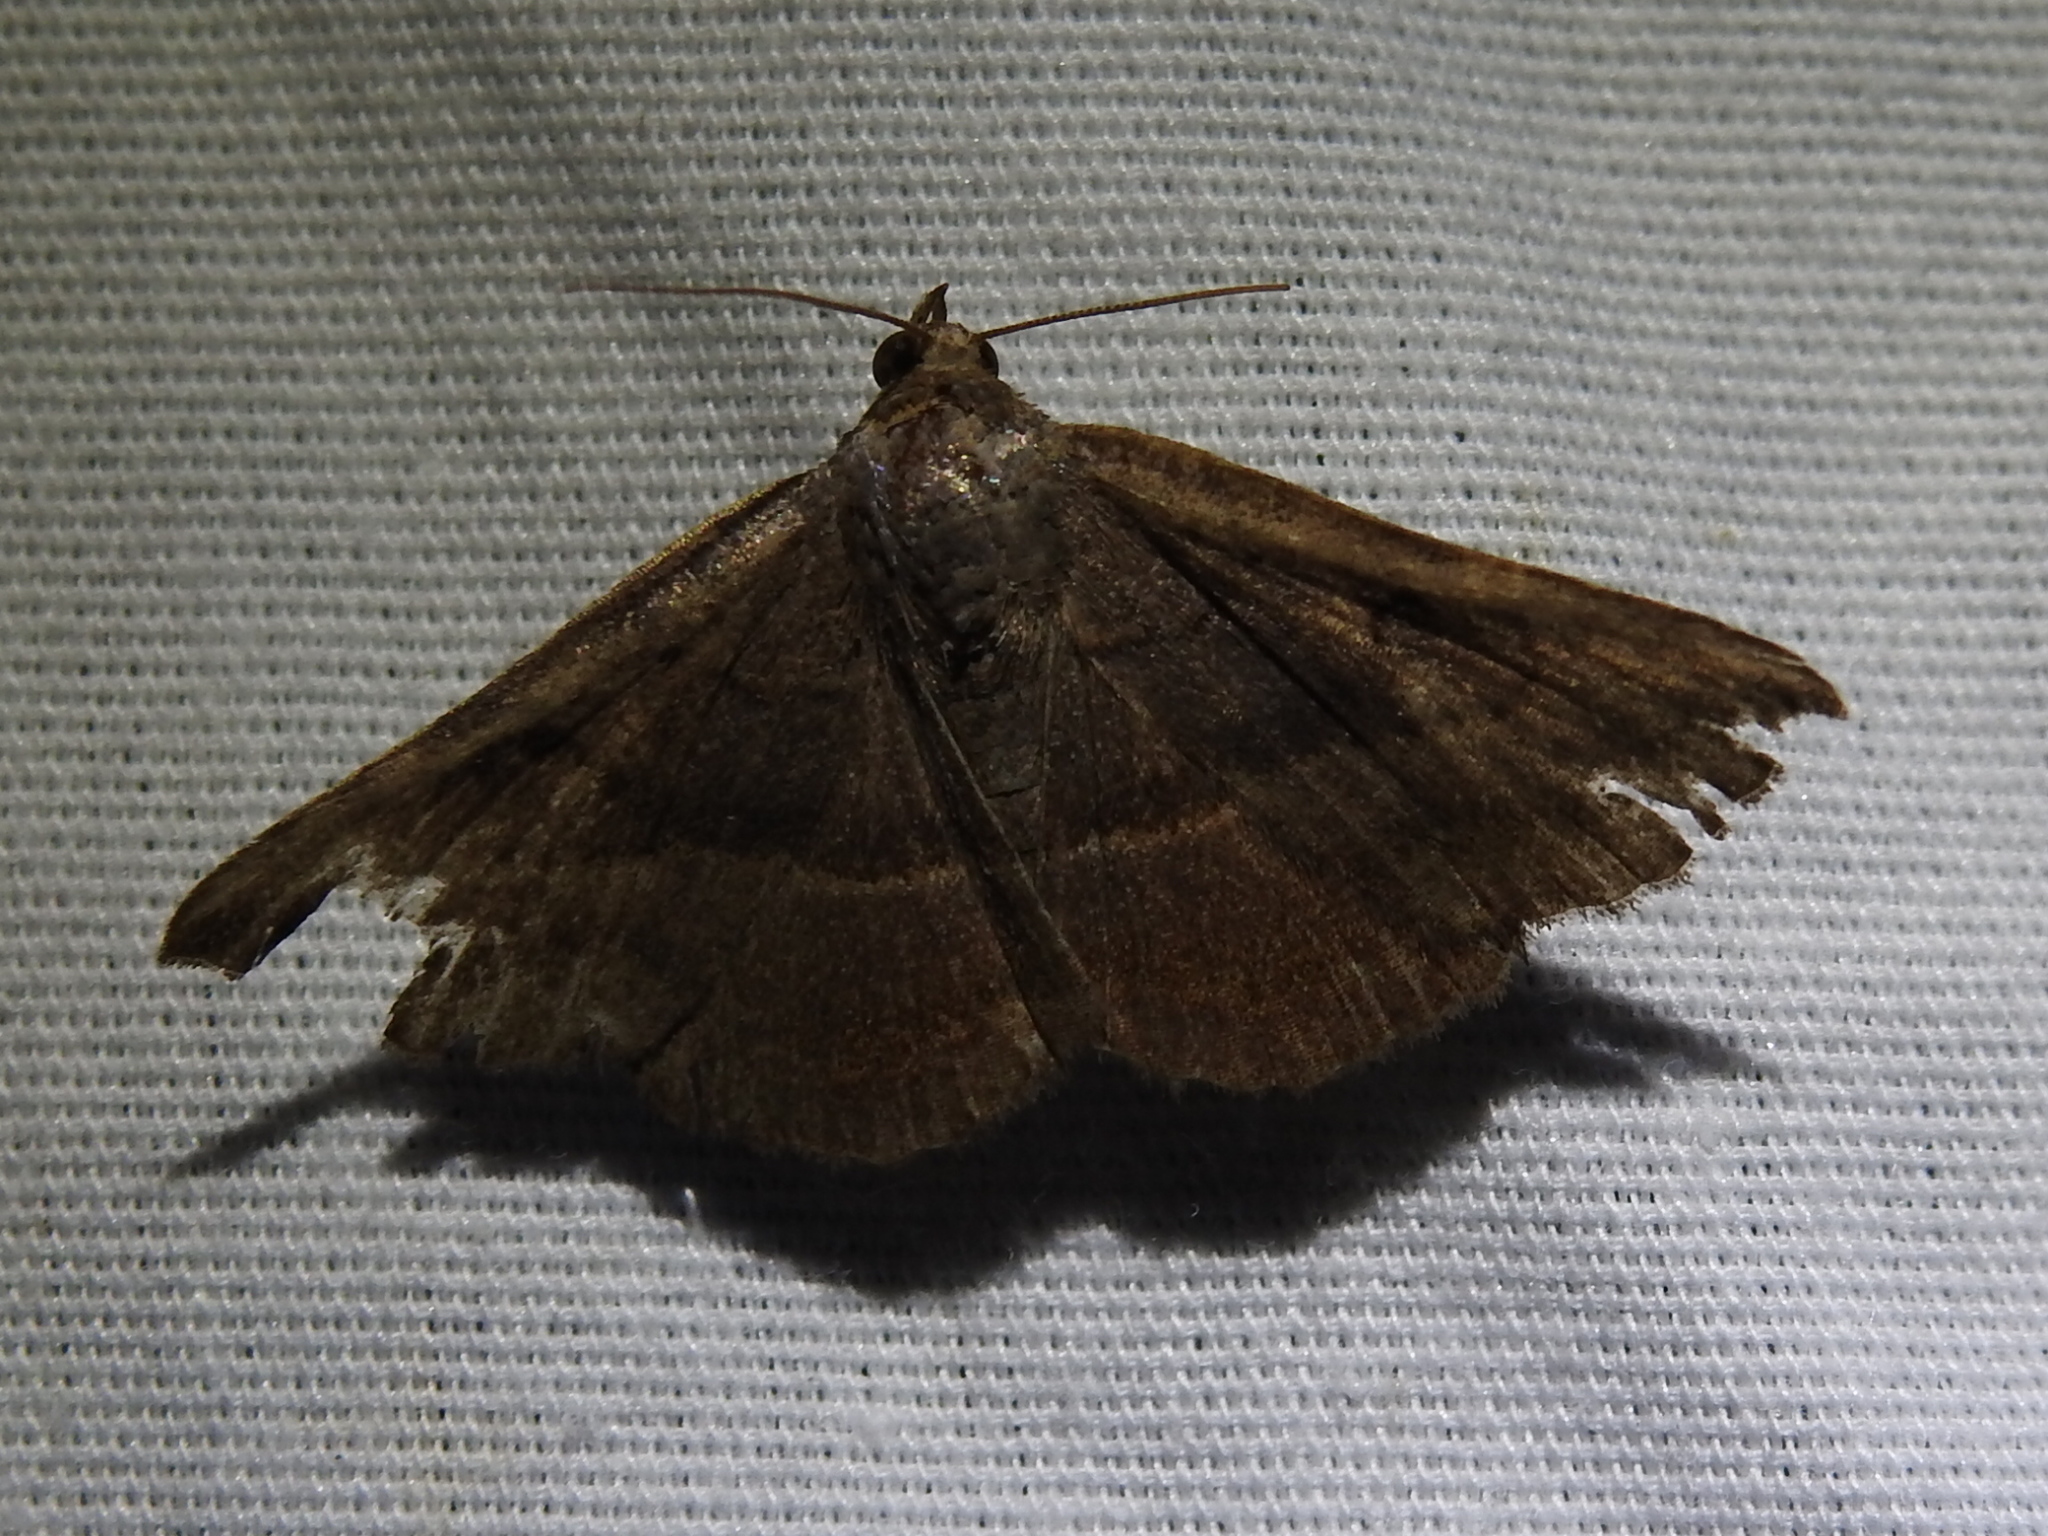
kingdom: Animalia
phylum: Arthropoda
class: Insecta
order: Lepidoptera
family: Erebidae
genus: Lesmone
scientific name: Lesmone detrahens
